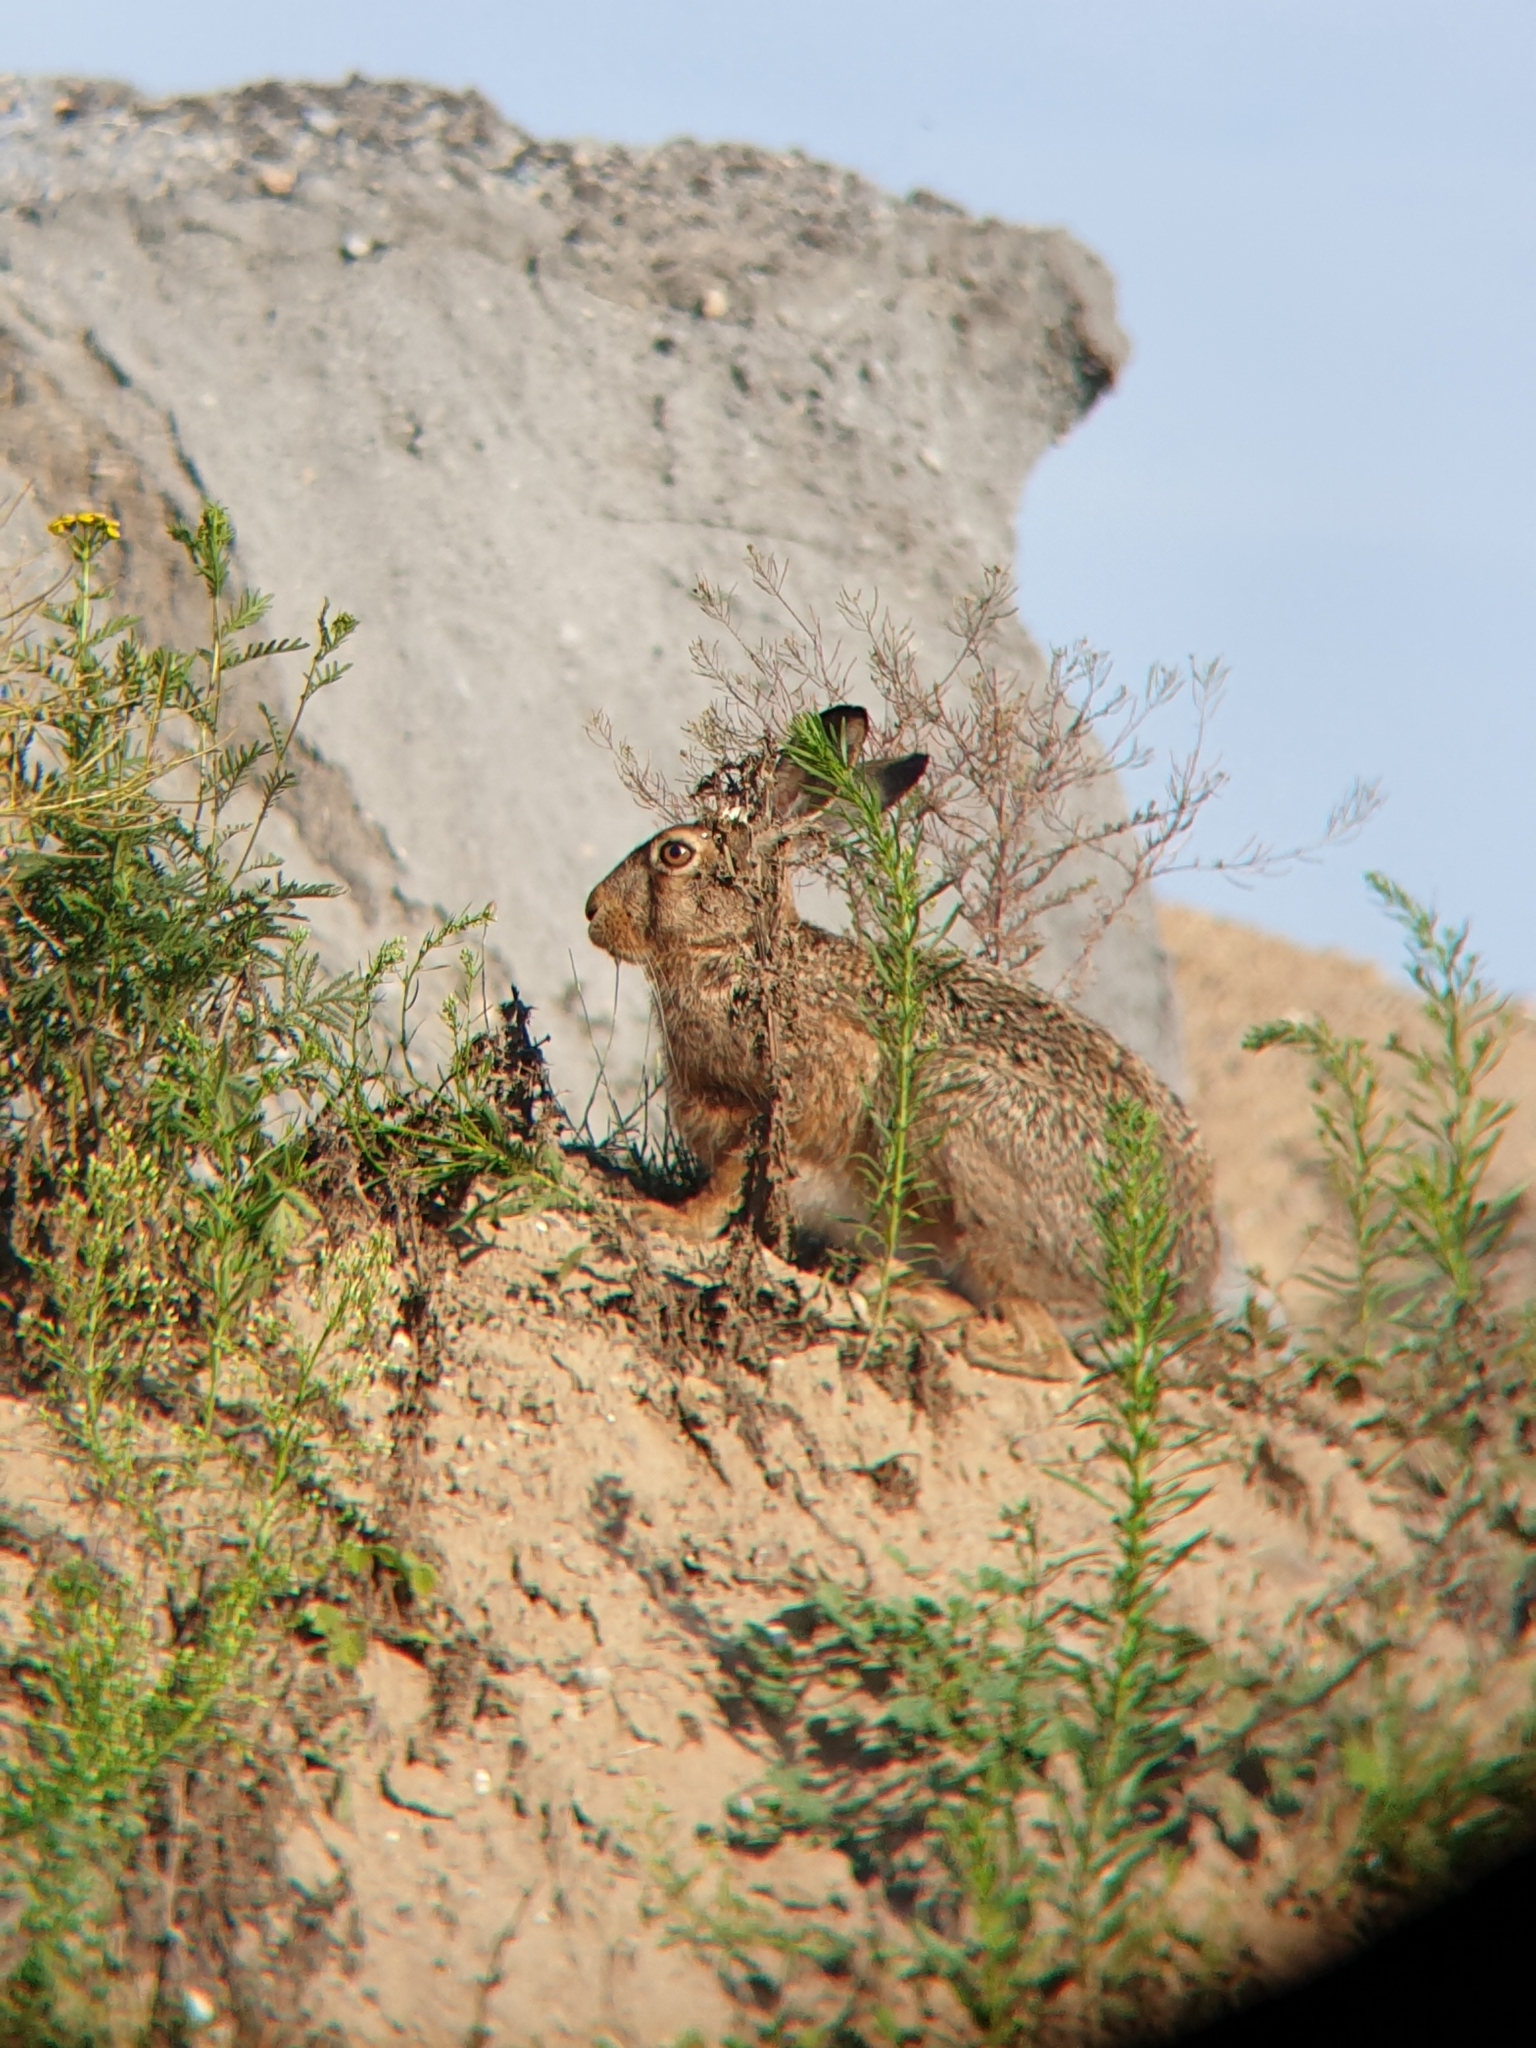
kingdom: Animalia
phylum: Chordata
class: Mammalia
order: Lagomorpha
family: Leporidae
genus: Lepus
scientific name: Lepus europaeus
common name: European hare
